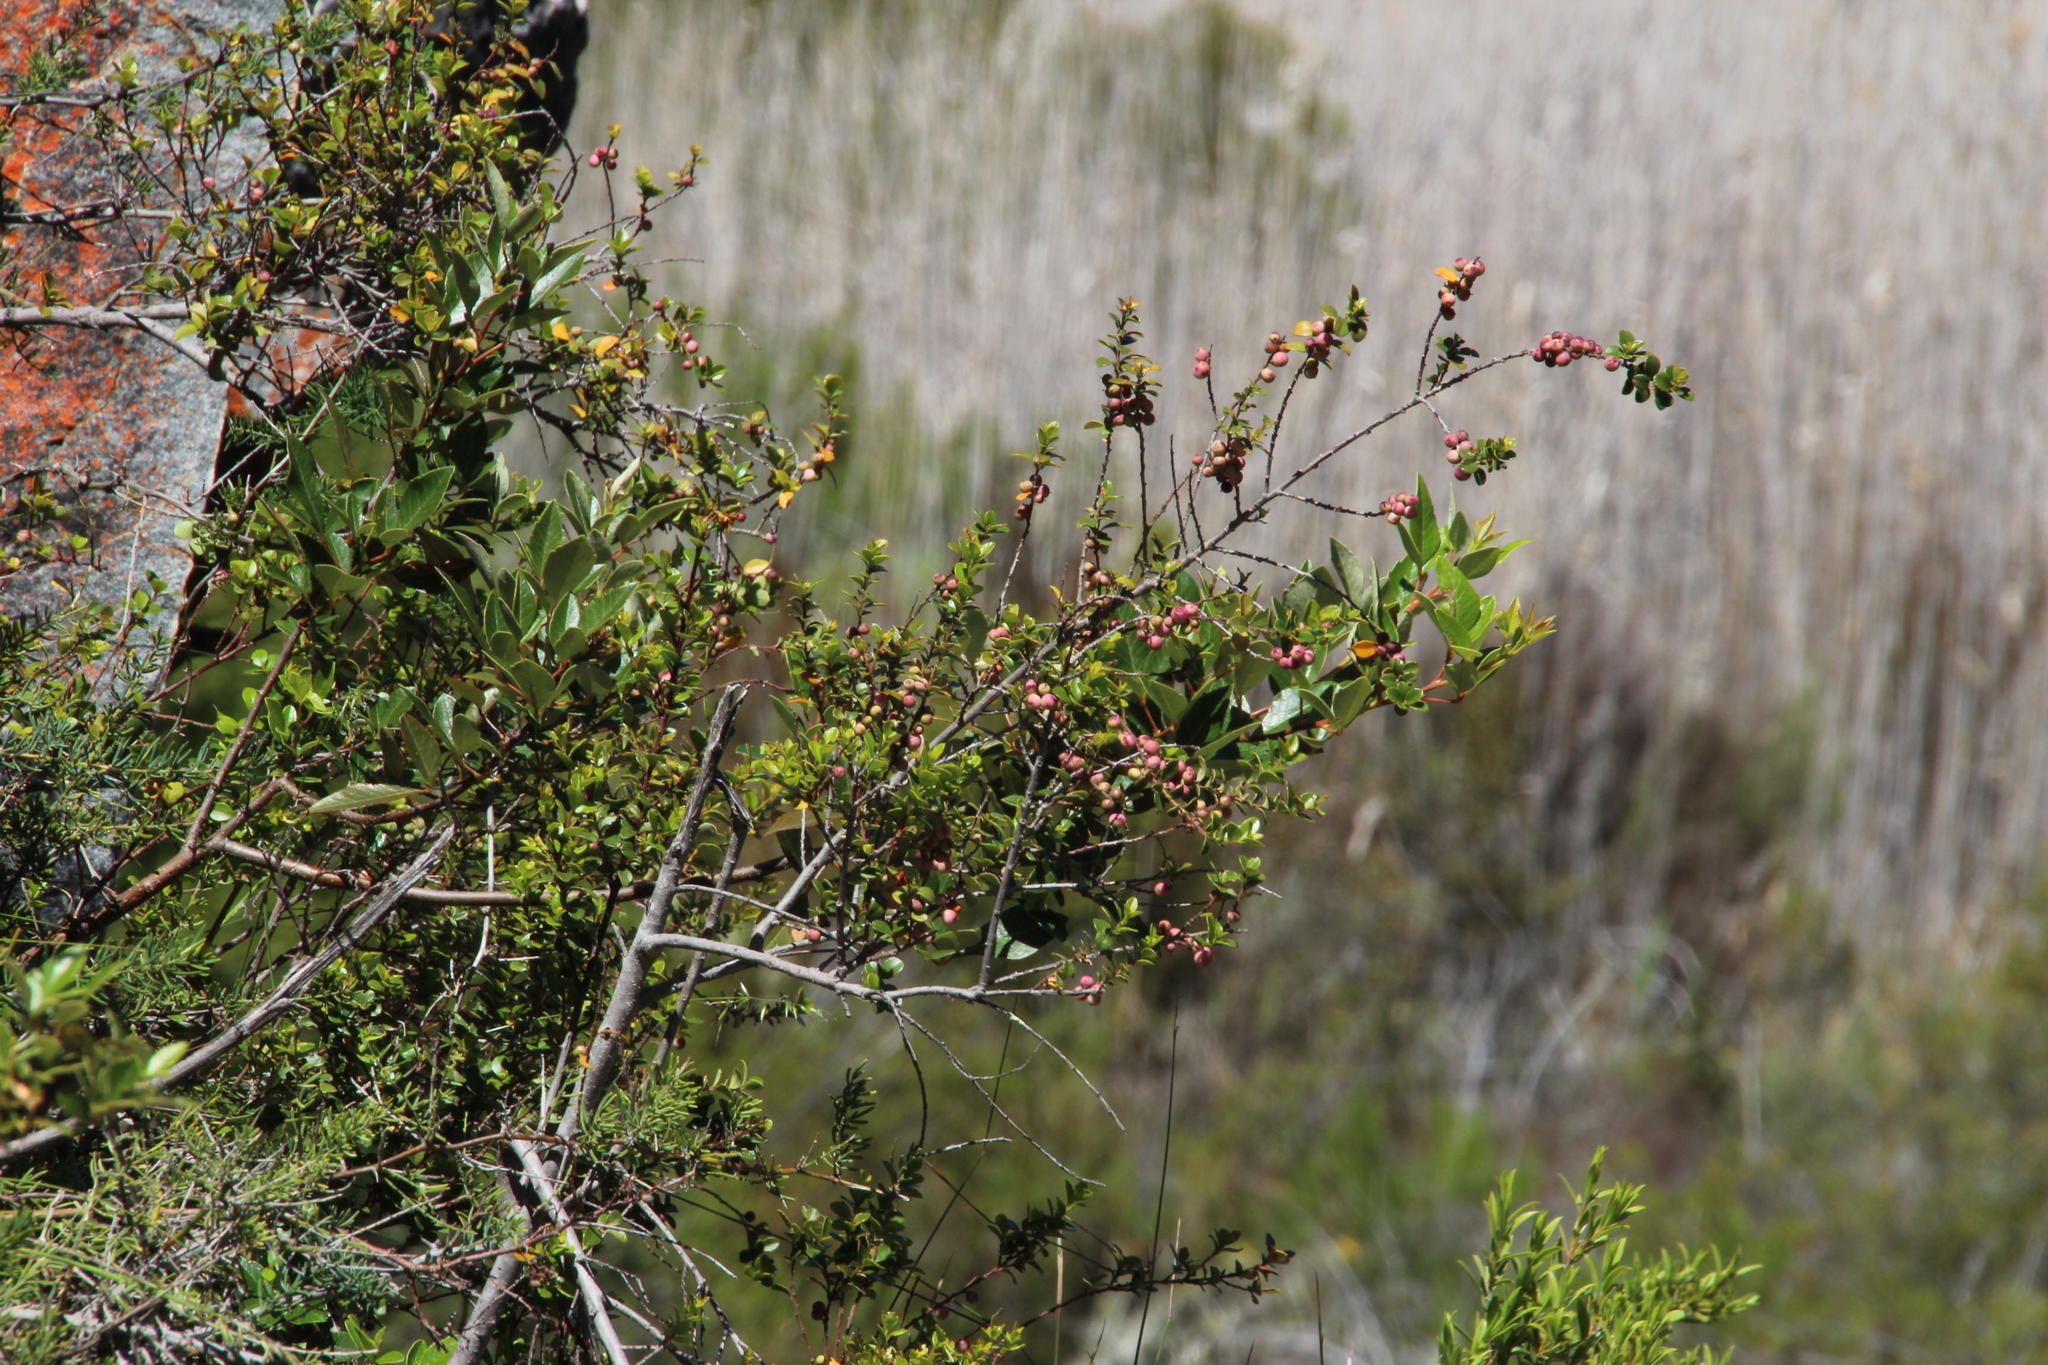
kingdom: Plantae
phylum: Tracheophyta
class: Magnoliopsida
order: Ericales
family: Primulaceae
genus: Myrsine
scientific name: Myrsine africana
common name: African-boxwood
